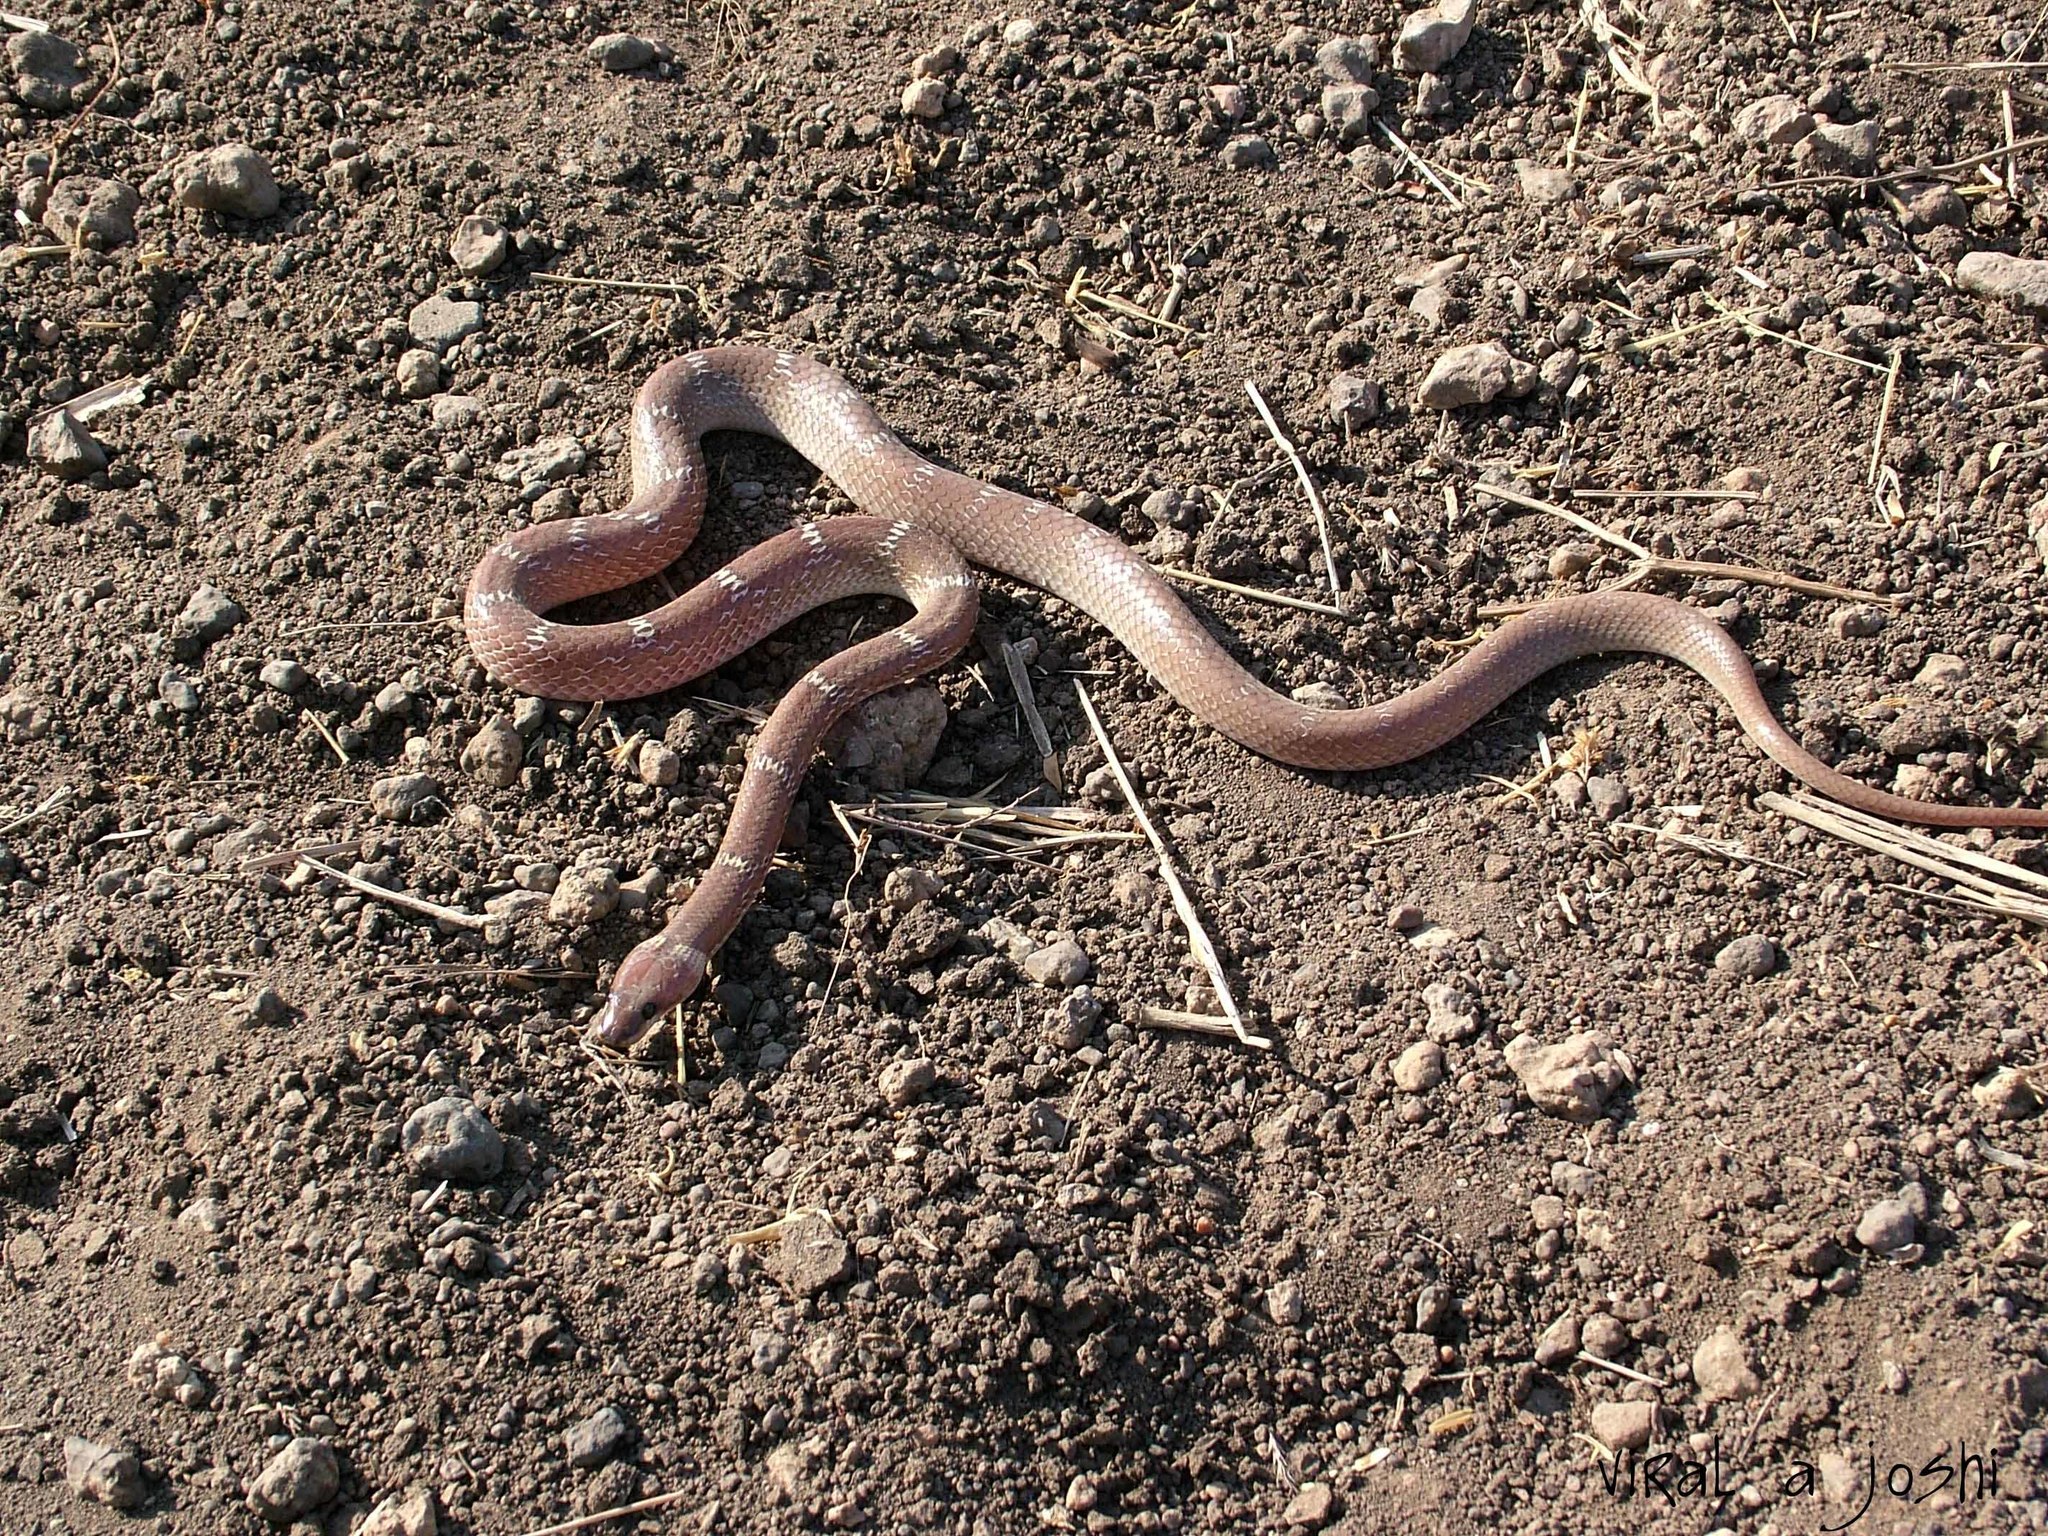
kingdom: Animalia
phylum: Chordata
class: Squamata
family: Colubridae
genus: Lycodon
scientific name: Lycodon aulicus
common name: Common wolf snake
